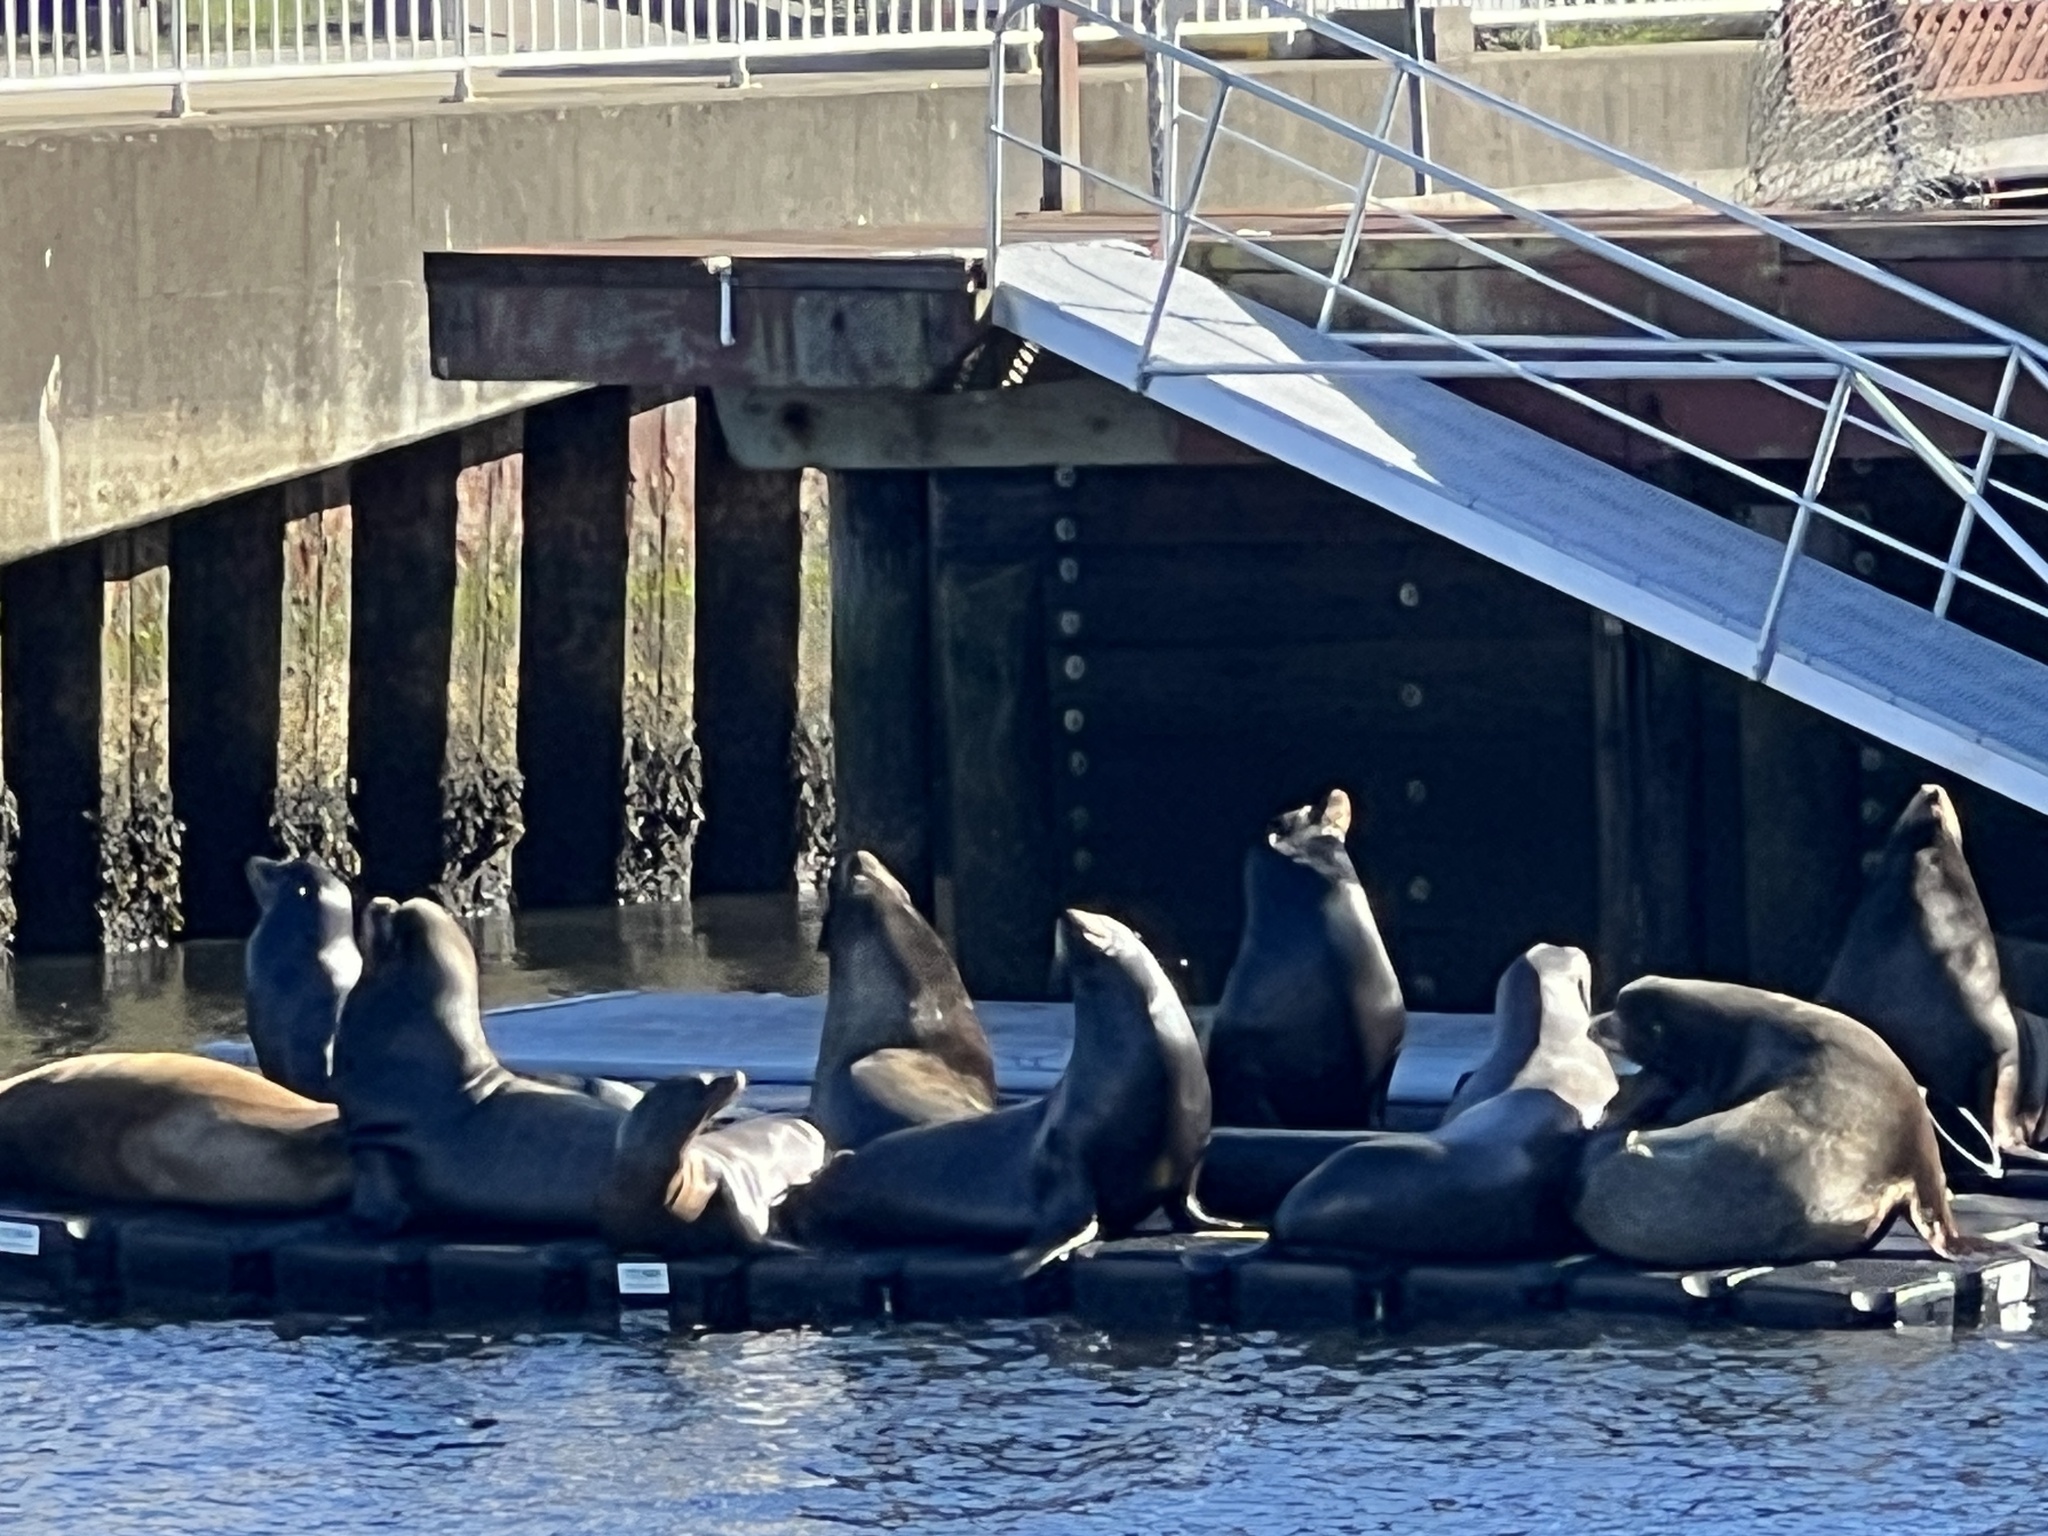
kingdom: Animalia
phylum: Chordata
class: Mammalia
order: Carnivora
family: Otariidae
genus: Zalophus
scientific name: Zalophus californianus
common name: California sea lion
